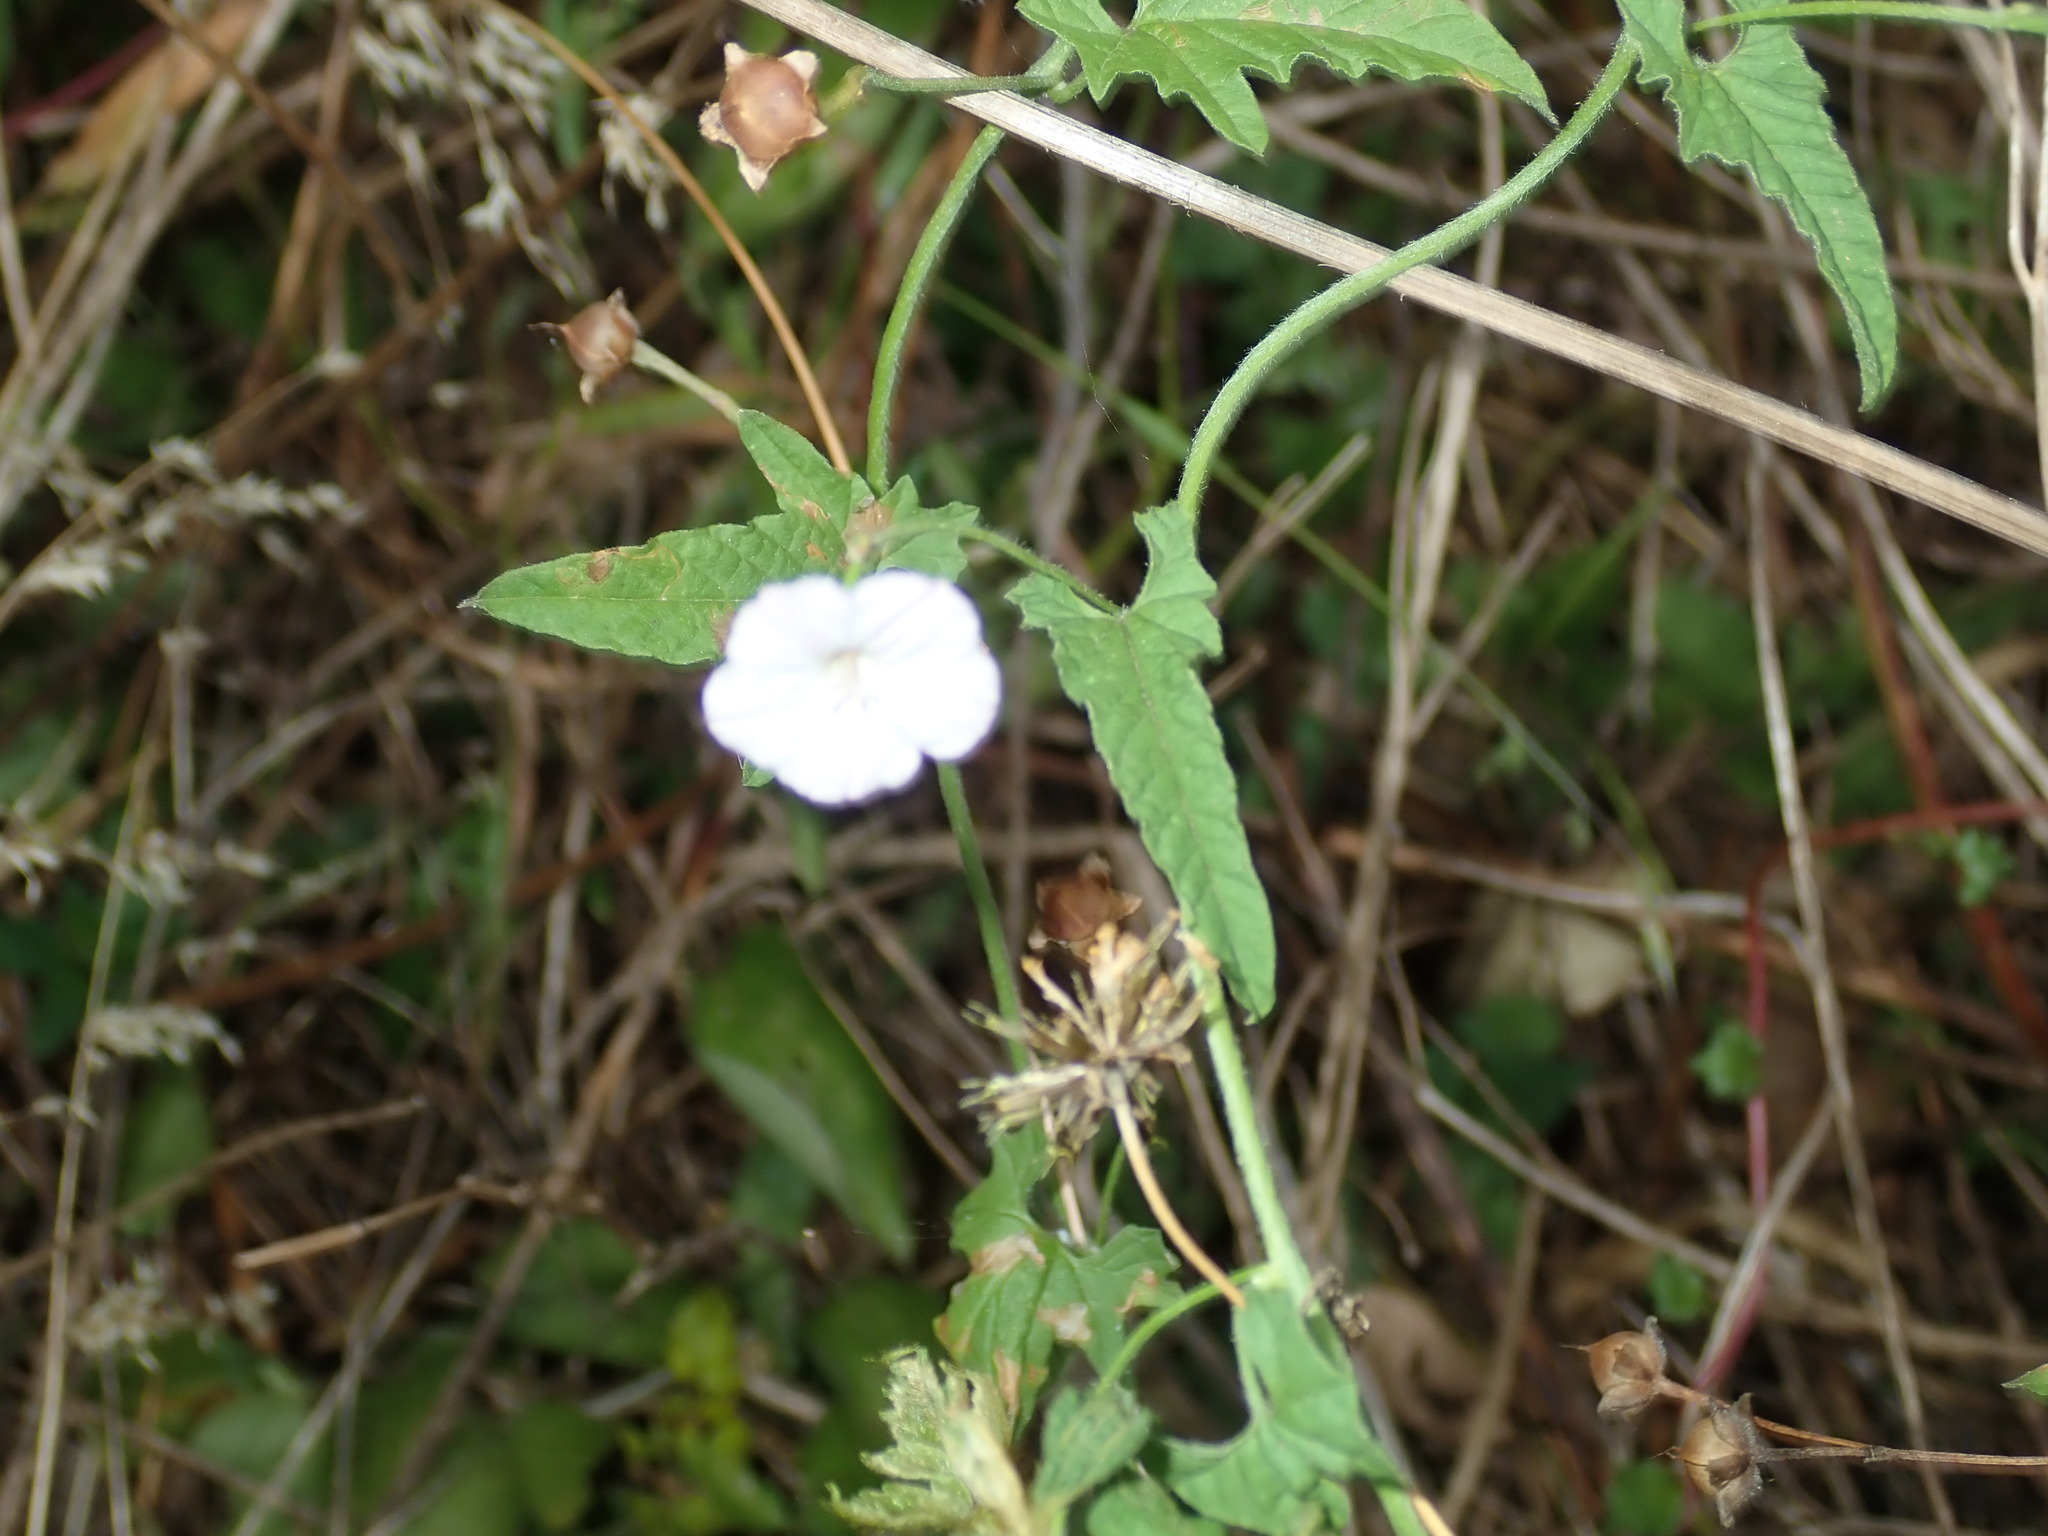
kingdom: Plantae
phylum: Tracheophyta
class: Magnoliopsida
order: Solanales
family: Convolvulaceae
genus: Convolvulus
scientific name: Convolvulus erubescens
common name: Australian bindweed
